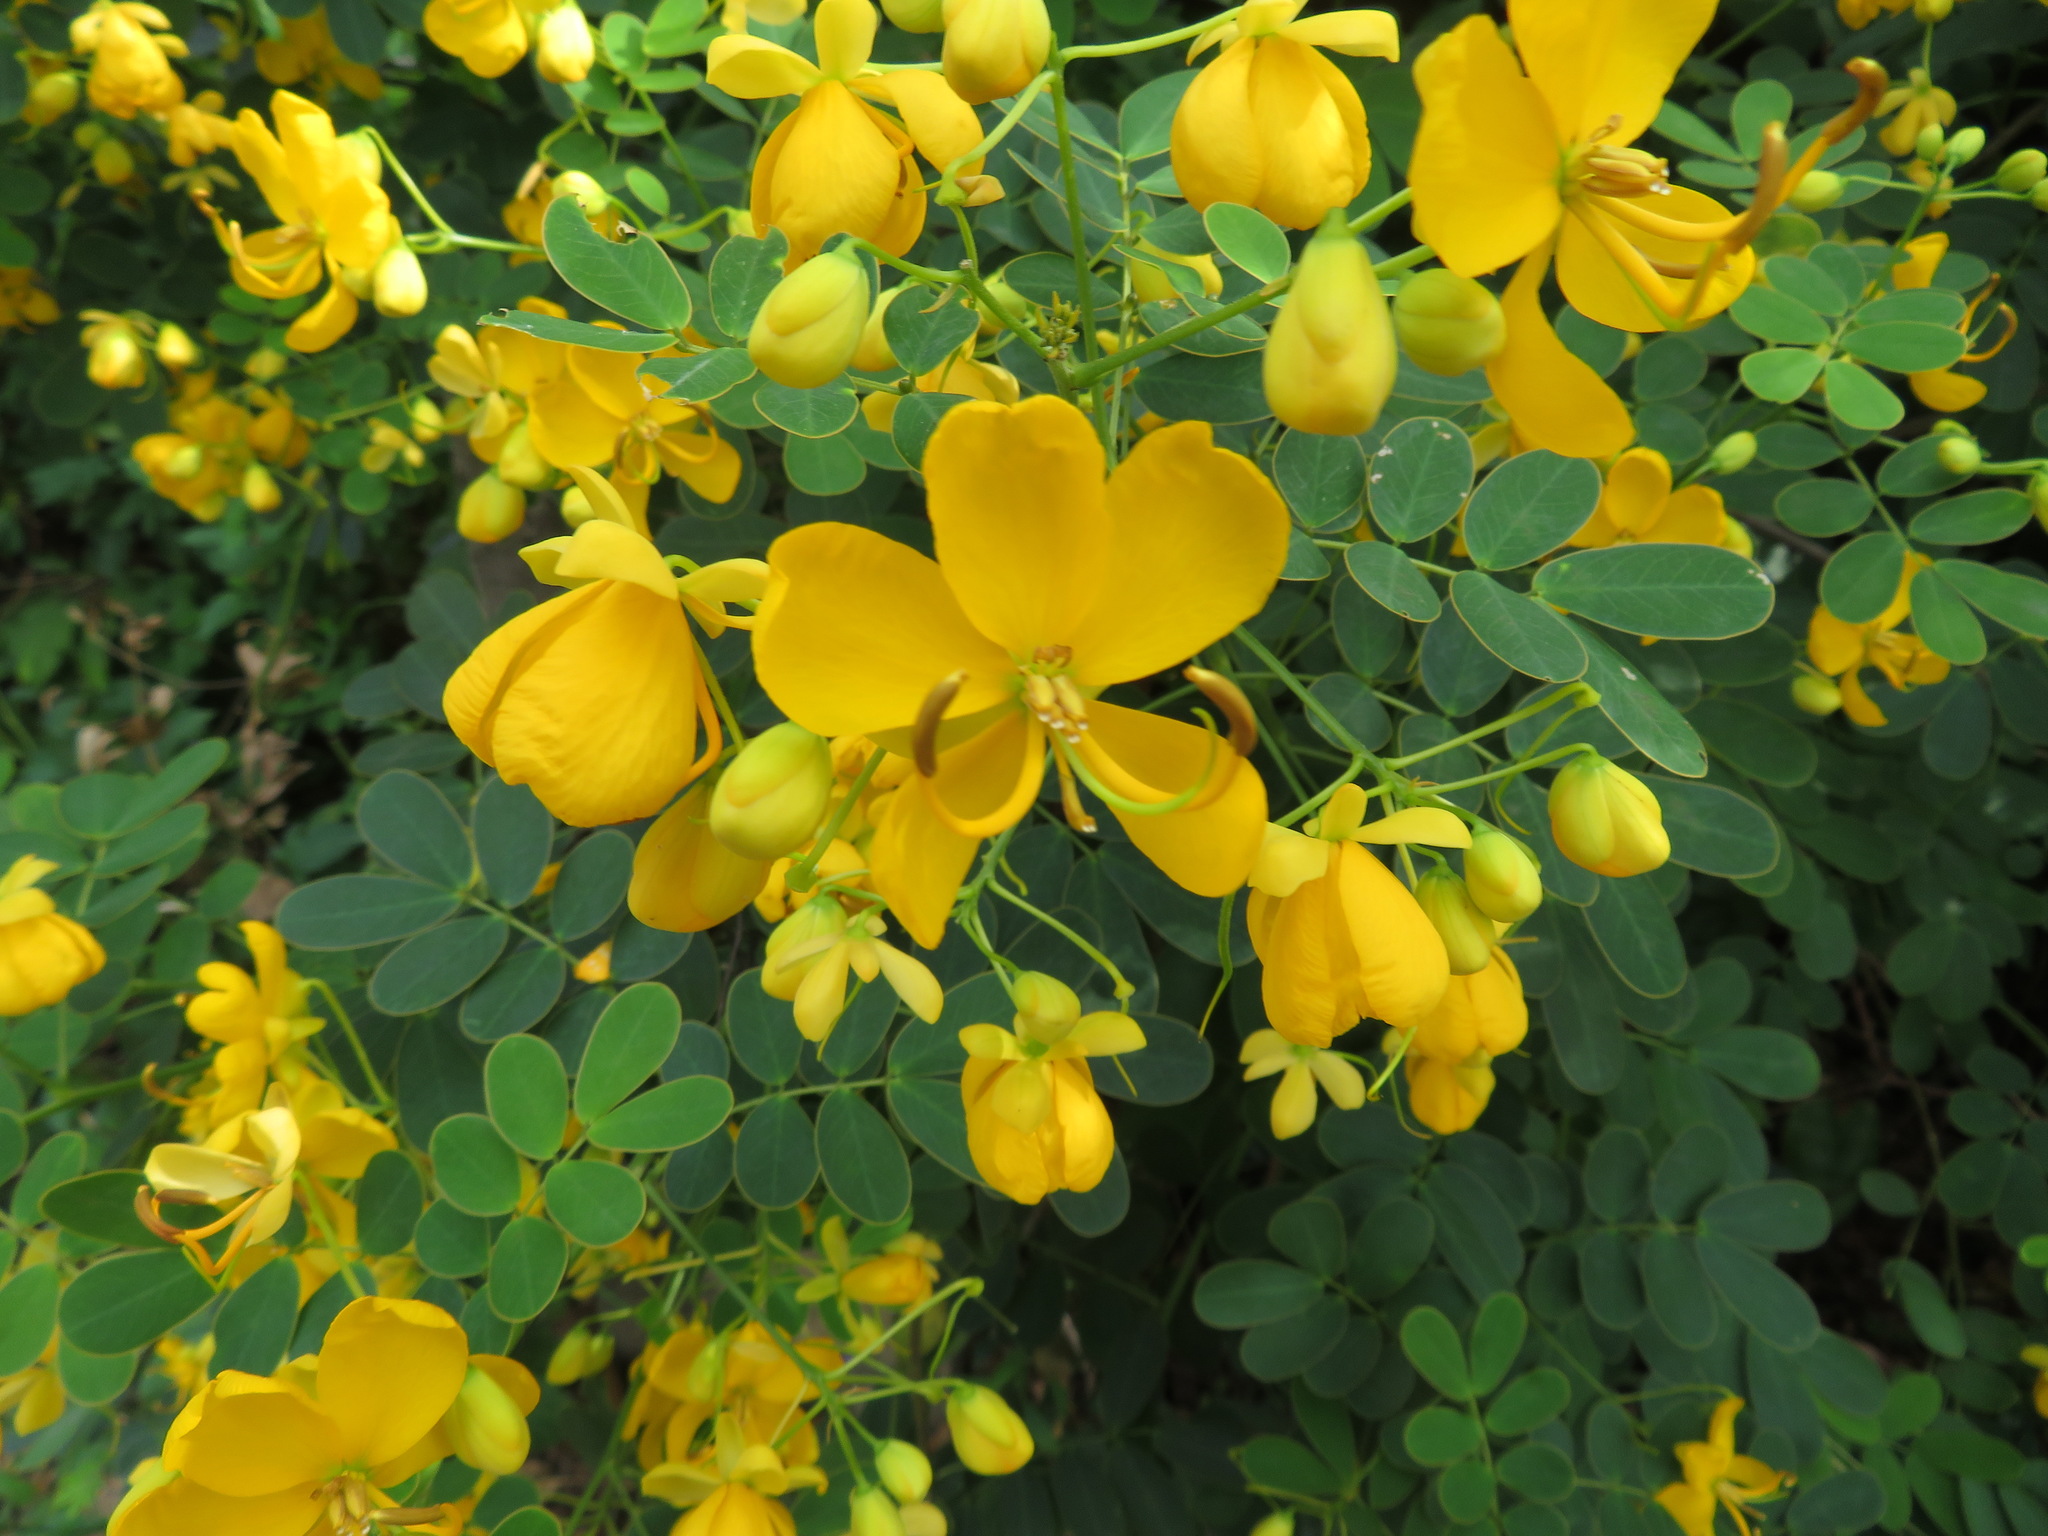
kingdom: Plantae
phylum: Tracheophyta
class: Magnoliopsida
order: Fabales
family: Fabaceae
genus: Senna
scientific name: Senna bicapsularis
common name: Christmasbush
